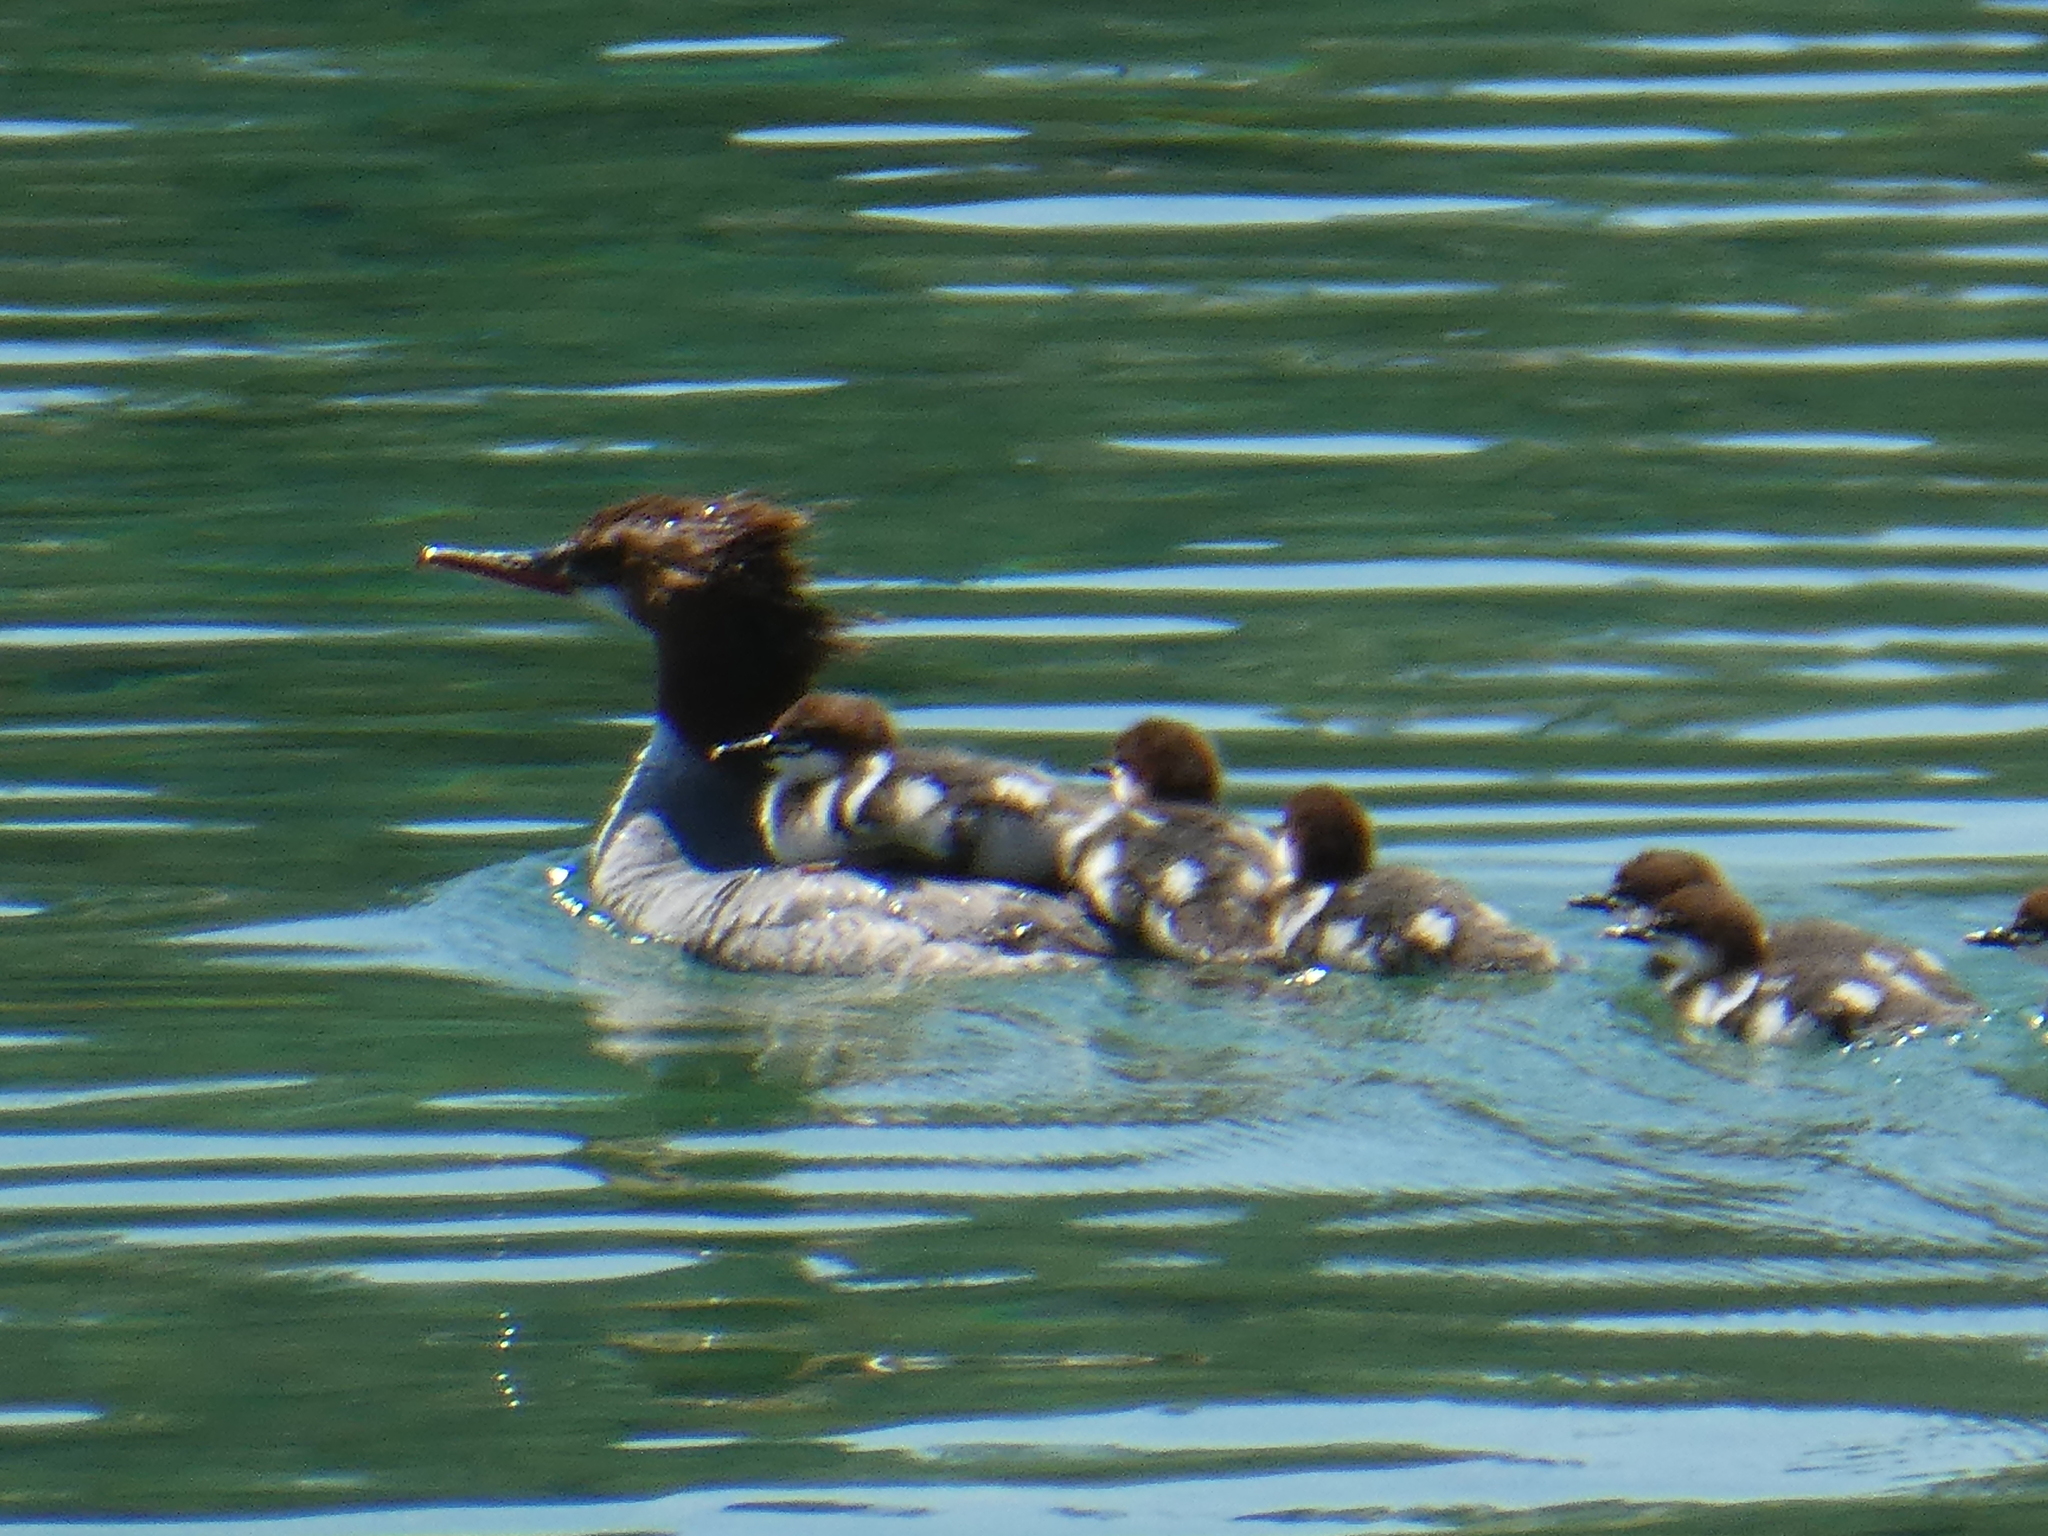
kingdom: Animalia
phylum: Chordata
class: Aves
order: Anseriformes
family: Anatidae
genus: Mergus
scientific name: Mergus merganser
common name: Common merganser
